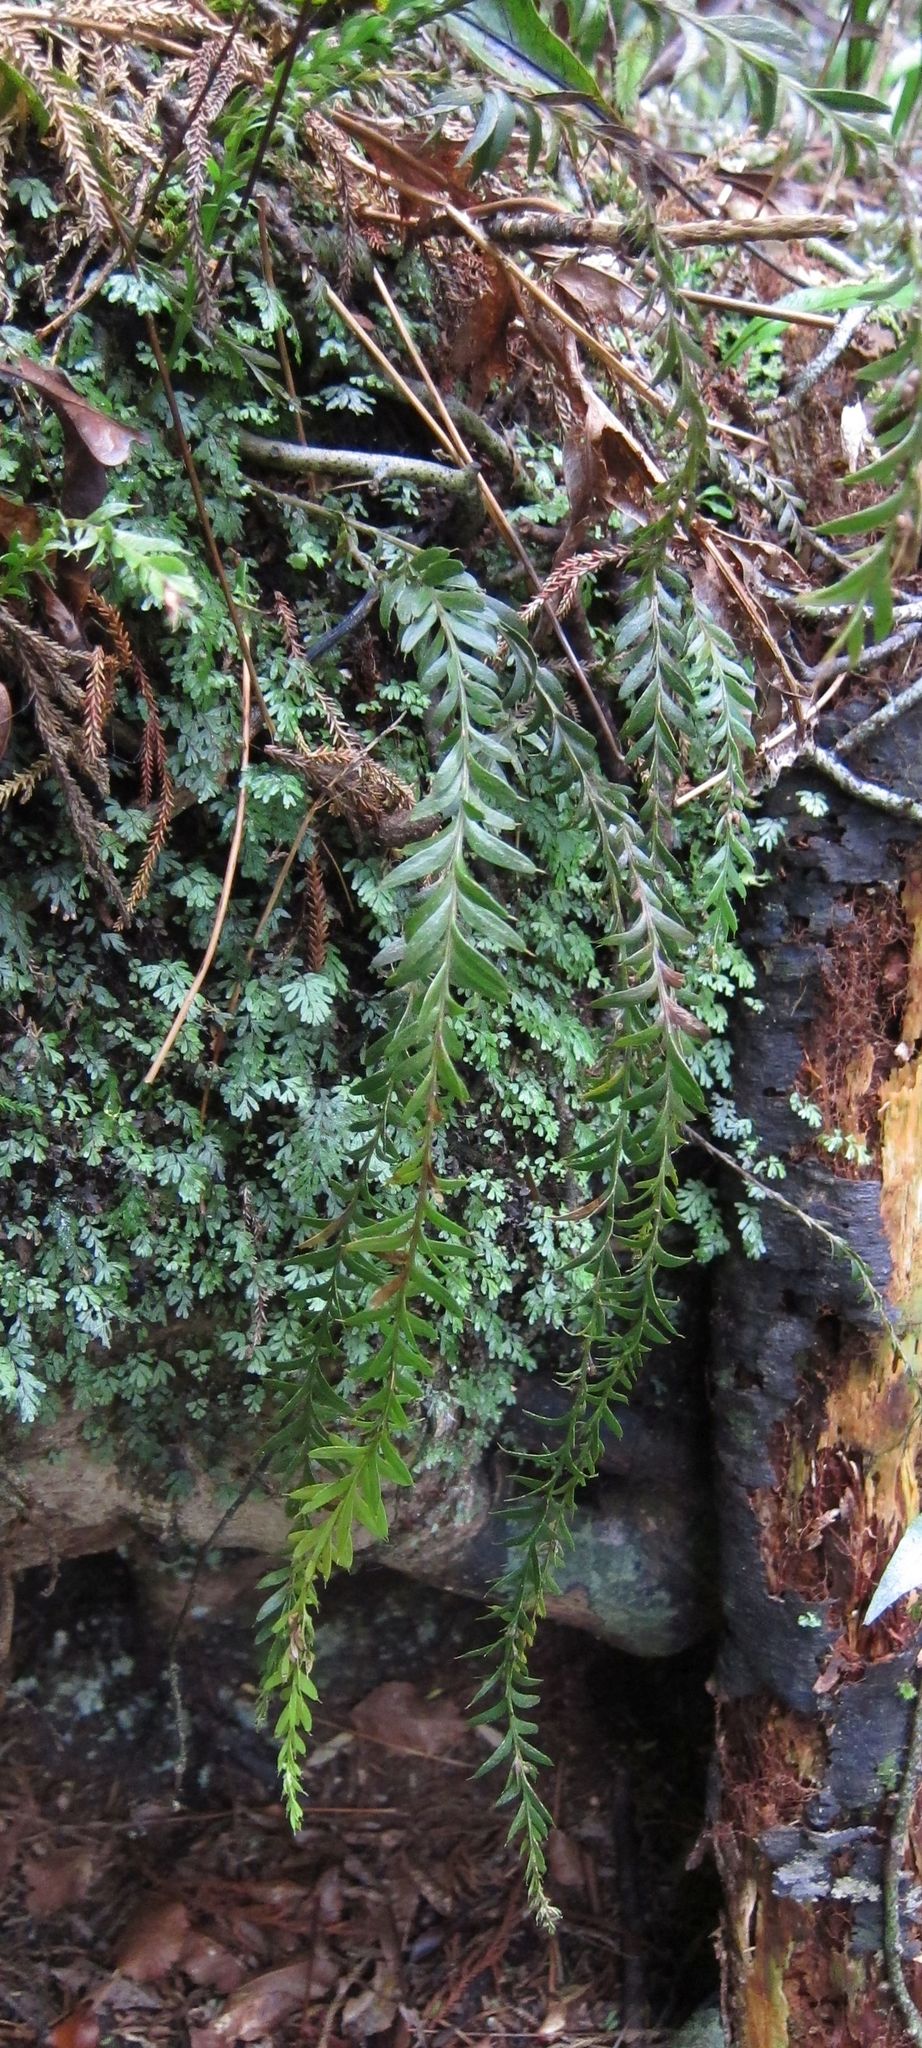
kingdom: Plantae
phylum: Tracheophyta
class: Polypodiopsida
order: Psilotales
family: Psilotaceae
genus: Tmesipteris
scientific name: Tmesipteris tannensis
